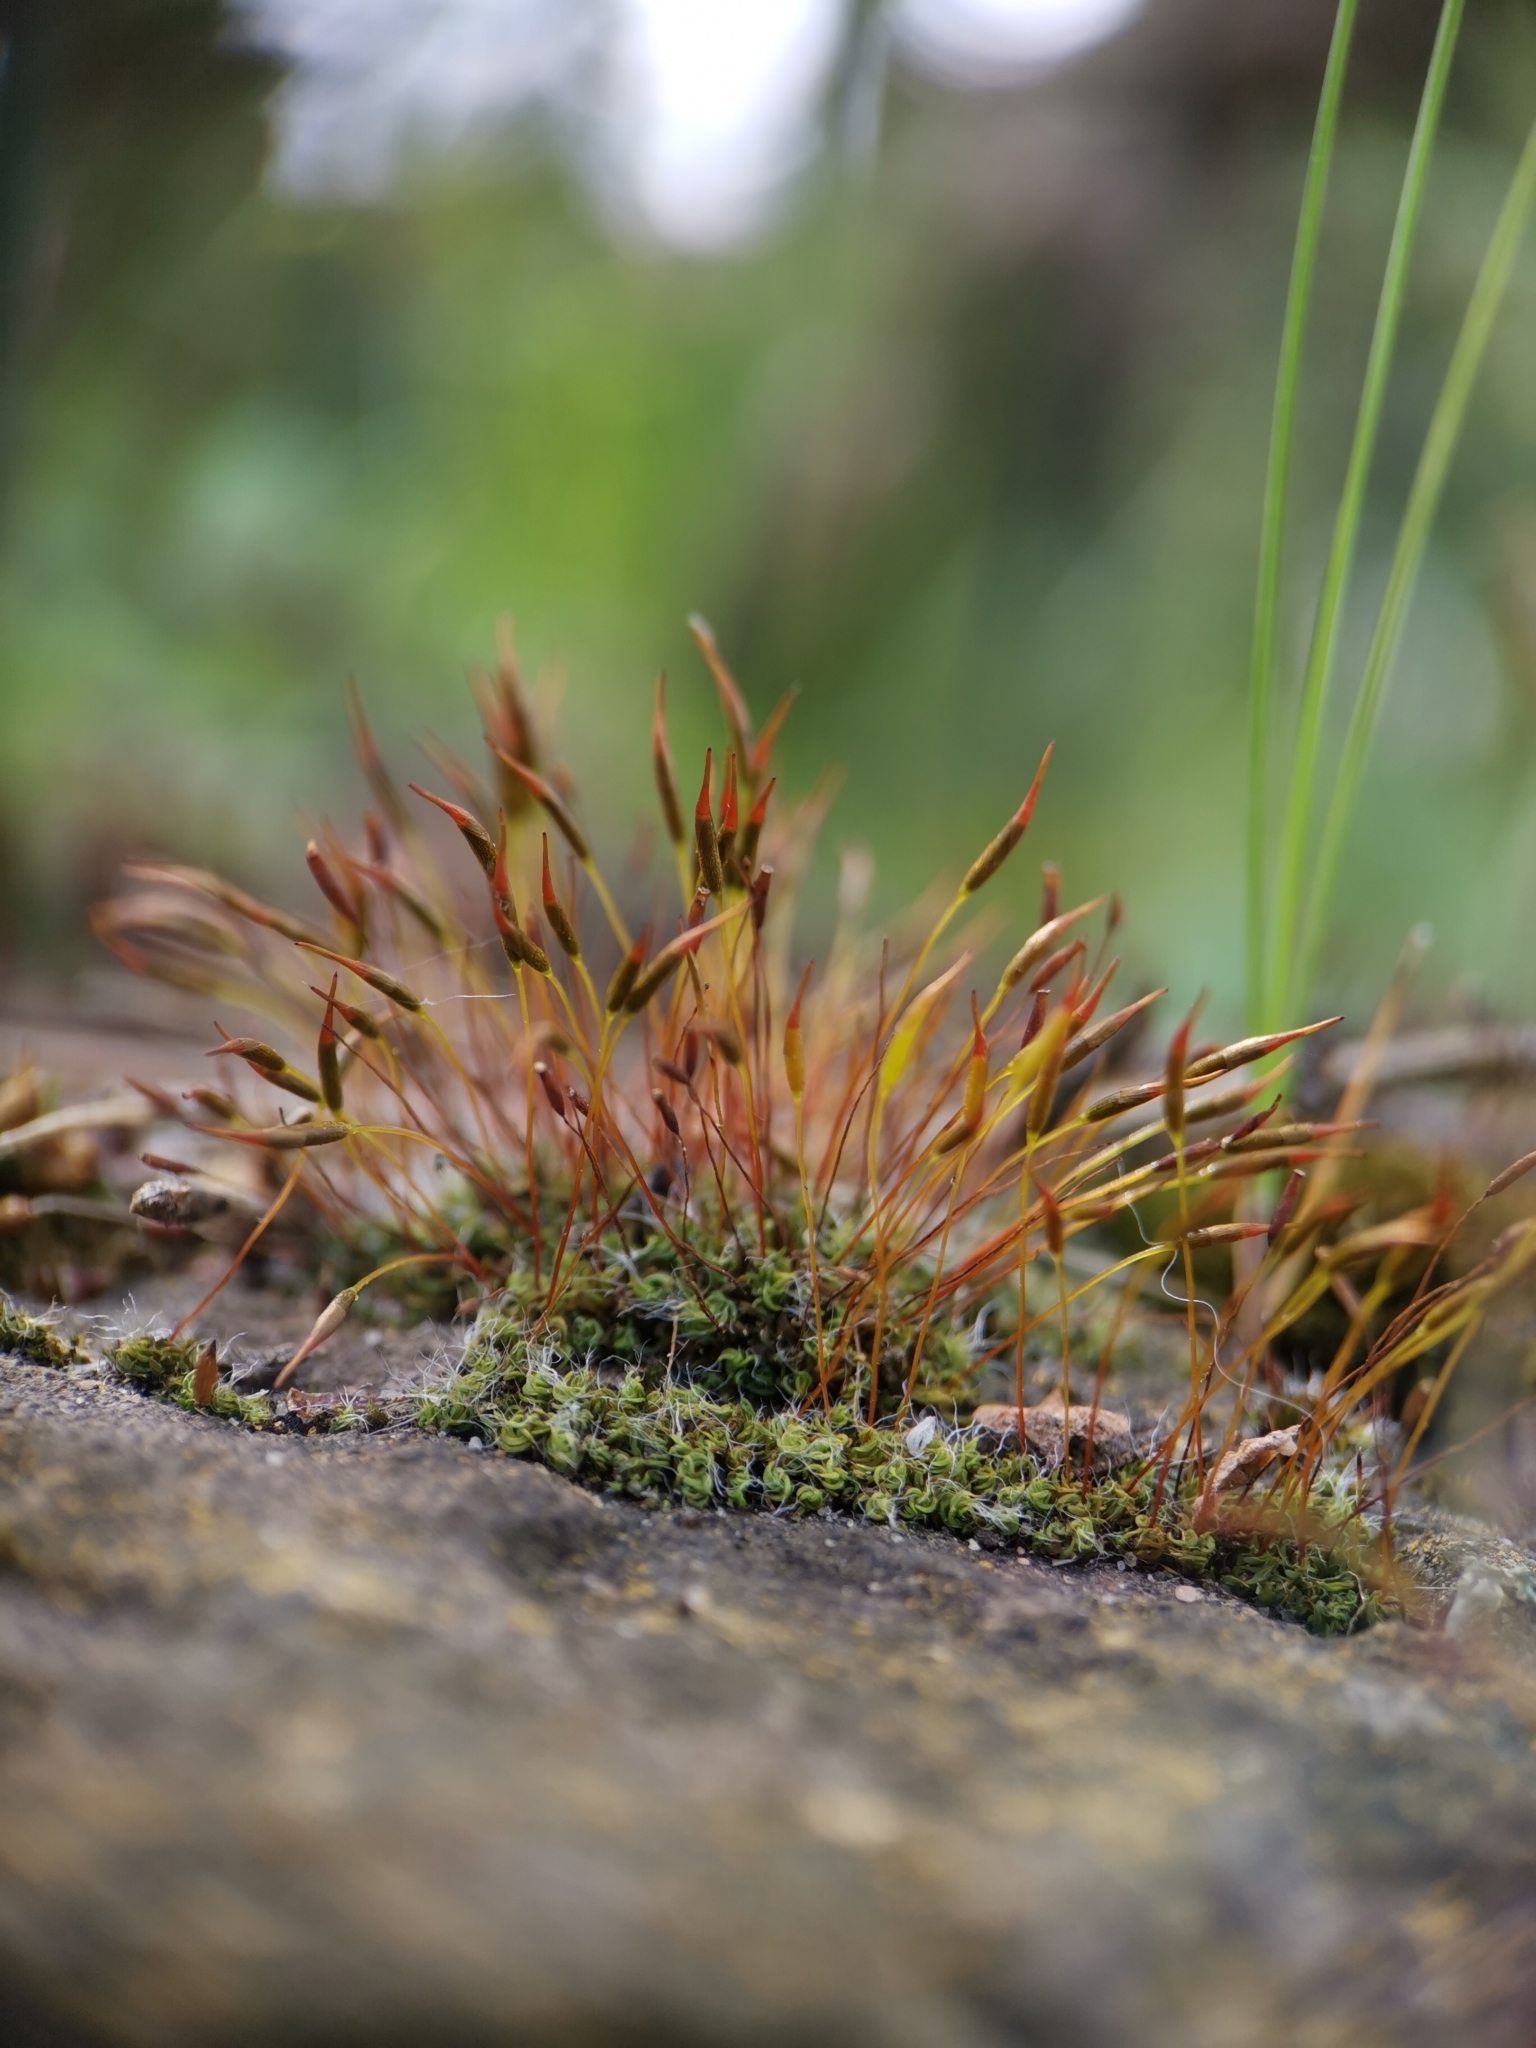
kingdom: Plantae
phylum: Bryophyta
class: Bryopsida
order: Pottiales
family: Pottiaceae
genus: Tortula
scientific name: Tortula muralis
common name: Wall screw-moss
